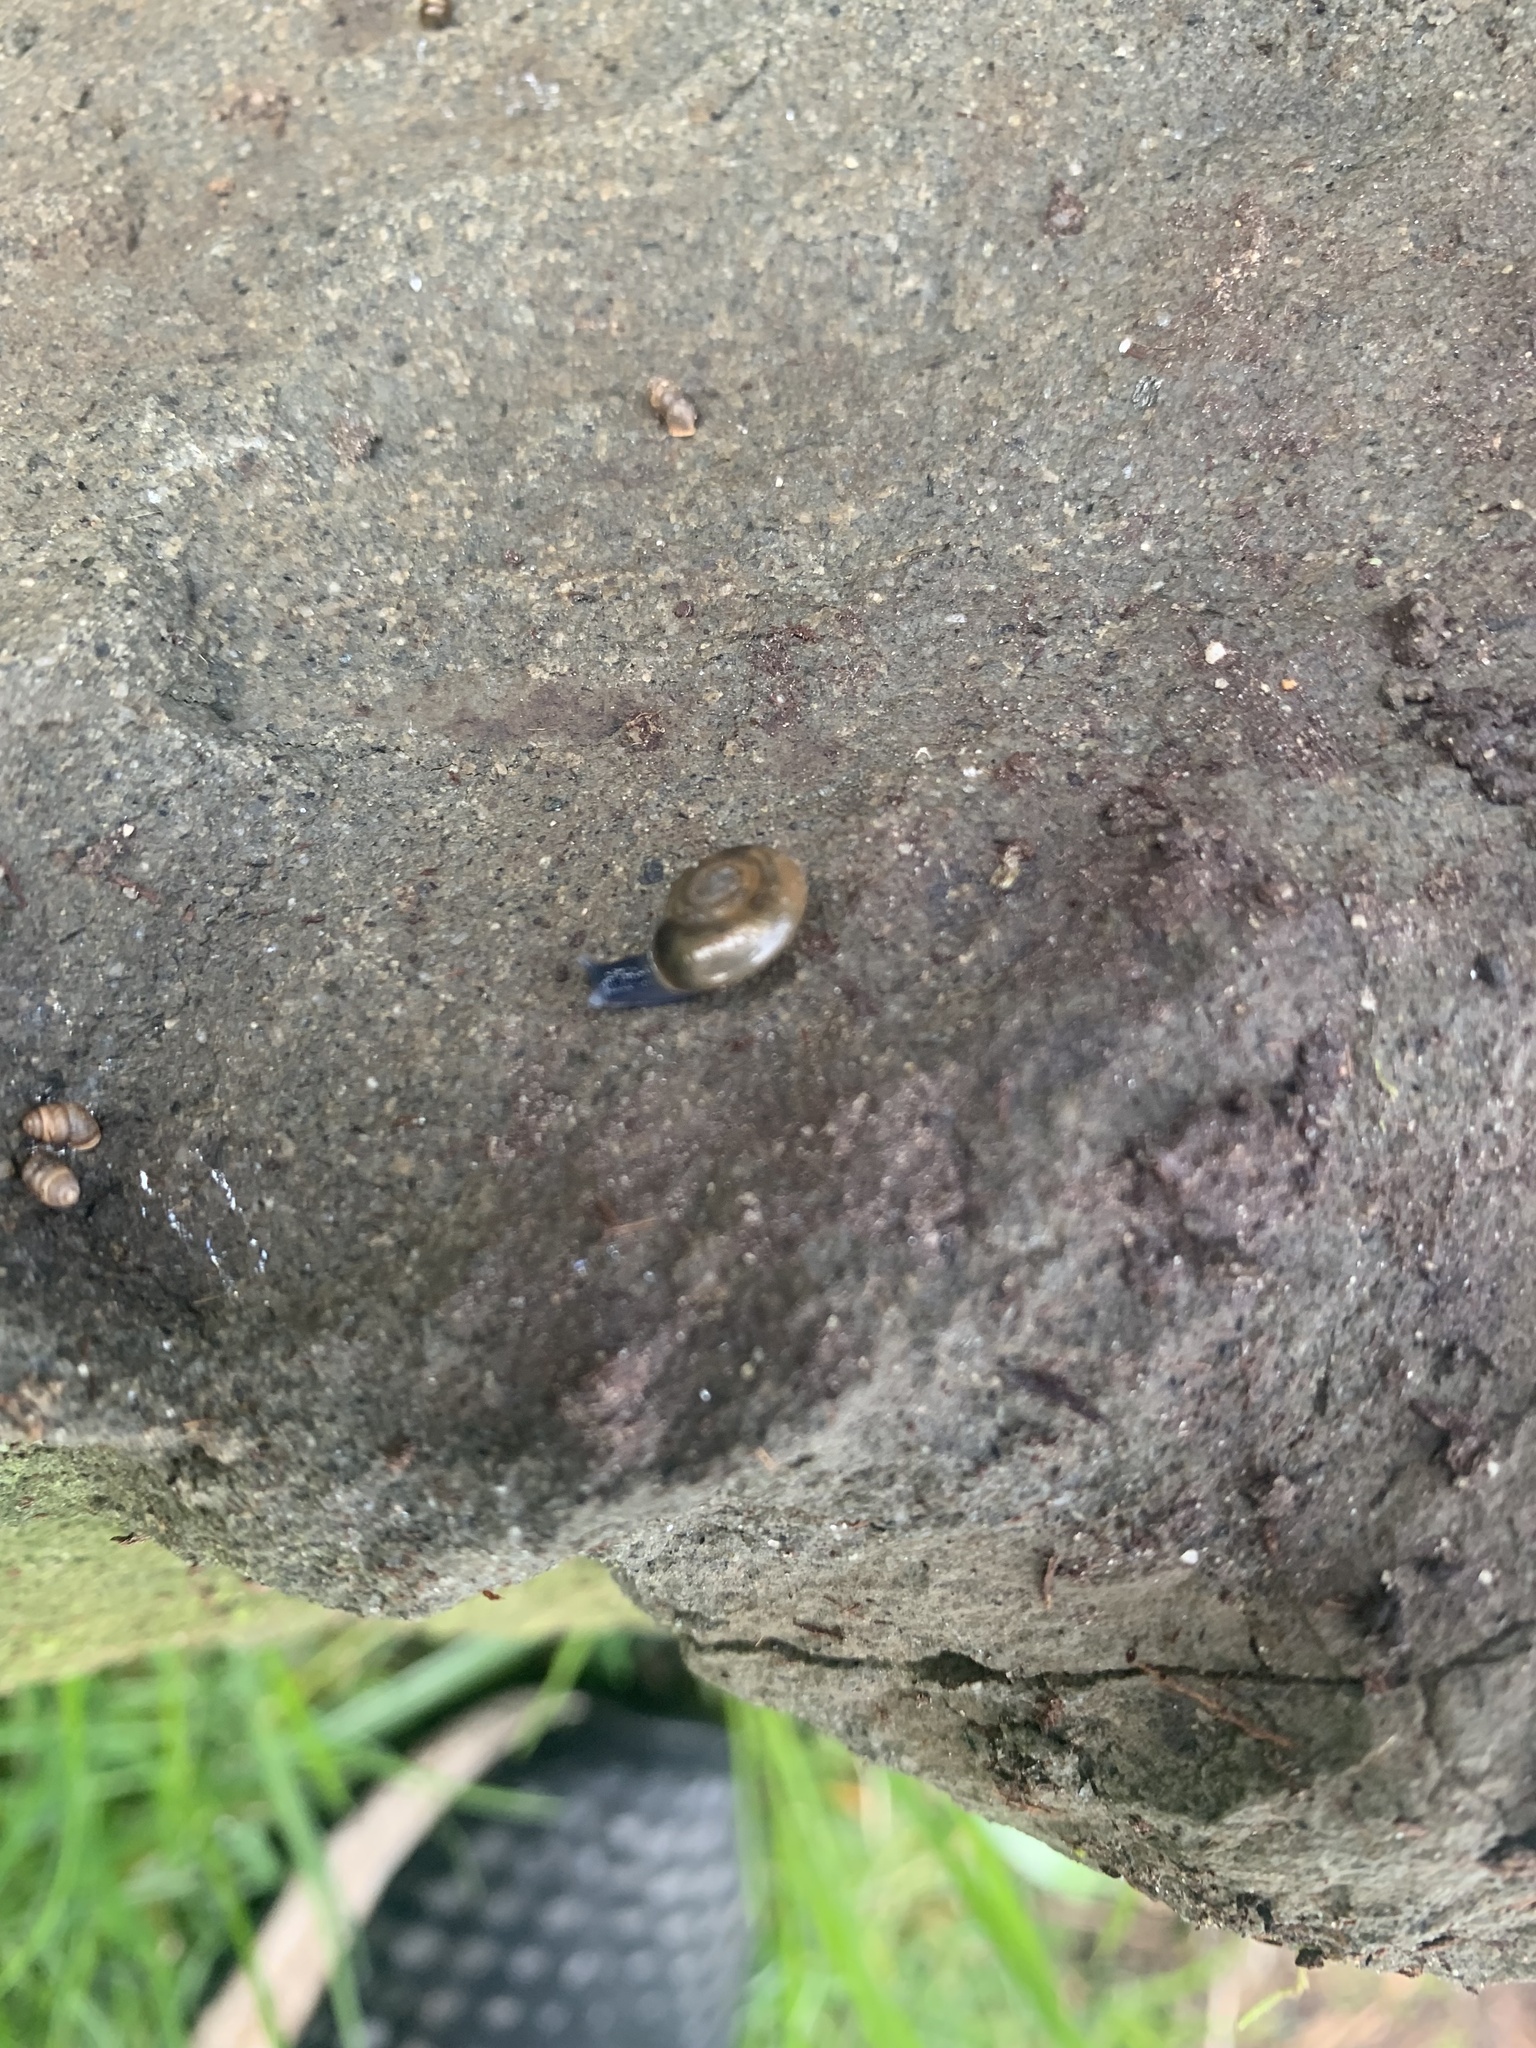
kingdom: Animalia
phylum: Mollusca
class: Gastropoda
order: Stylommatophora
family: Oxychilidae
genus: Oxychilus
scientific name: Oxychilus draparnaudi
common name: Draparnaud's glass snail
